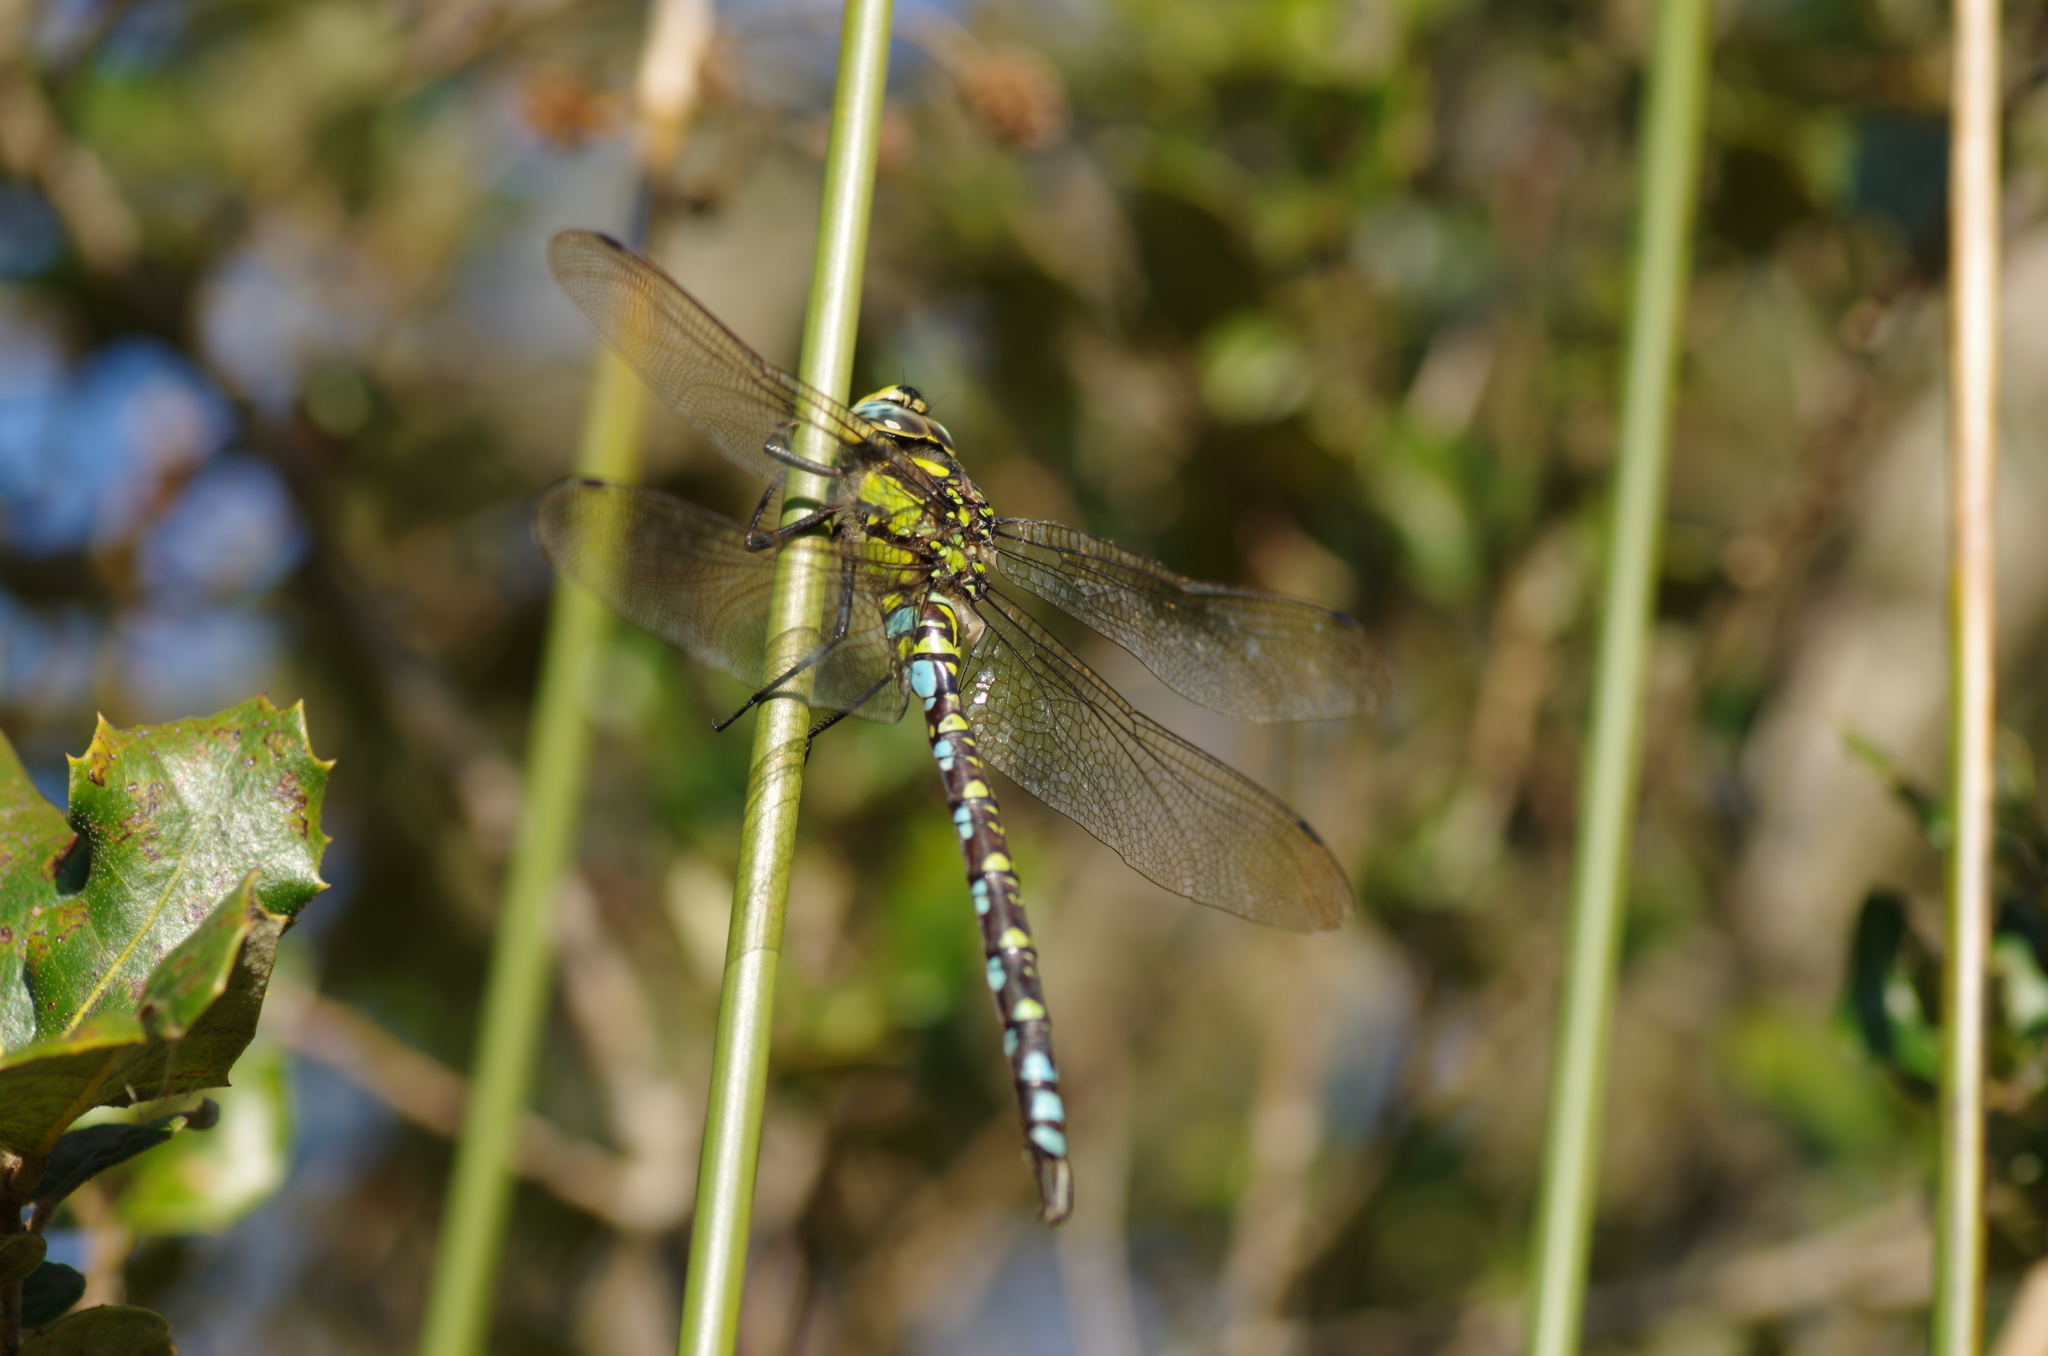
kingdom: Animalia
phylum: Arthropoda
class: Insecta
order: Odonata
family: Aeshnidae
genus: Aeshna
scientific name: Aeshna cyanea
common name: Southern hawker
